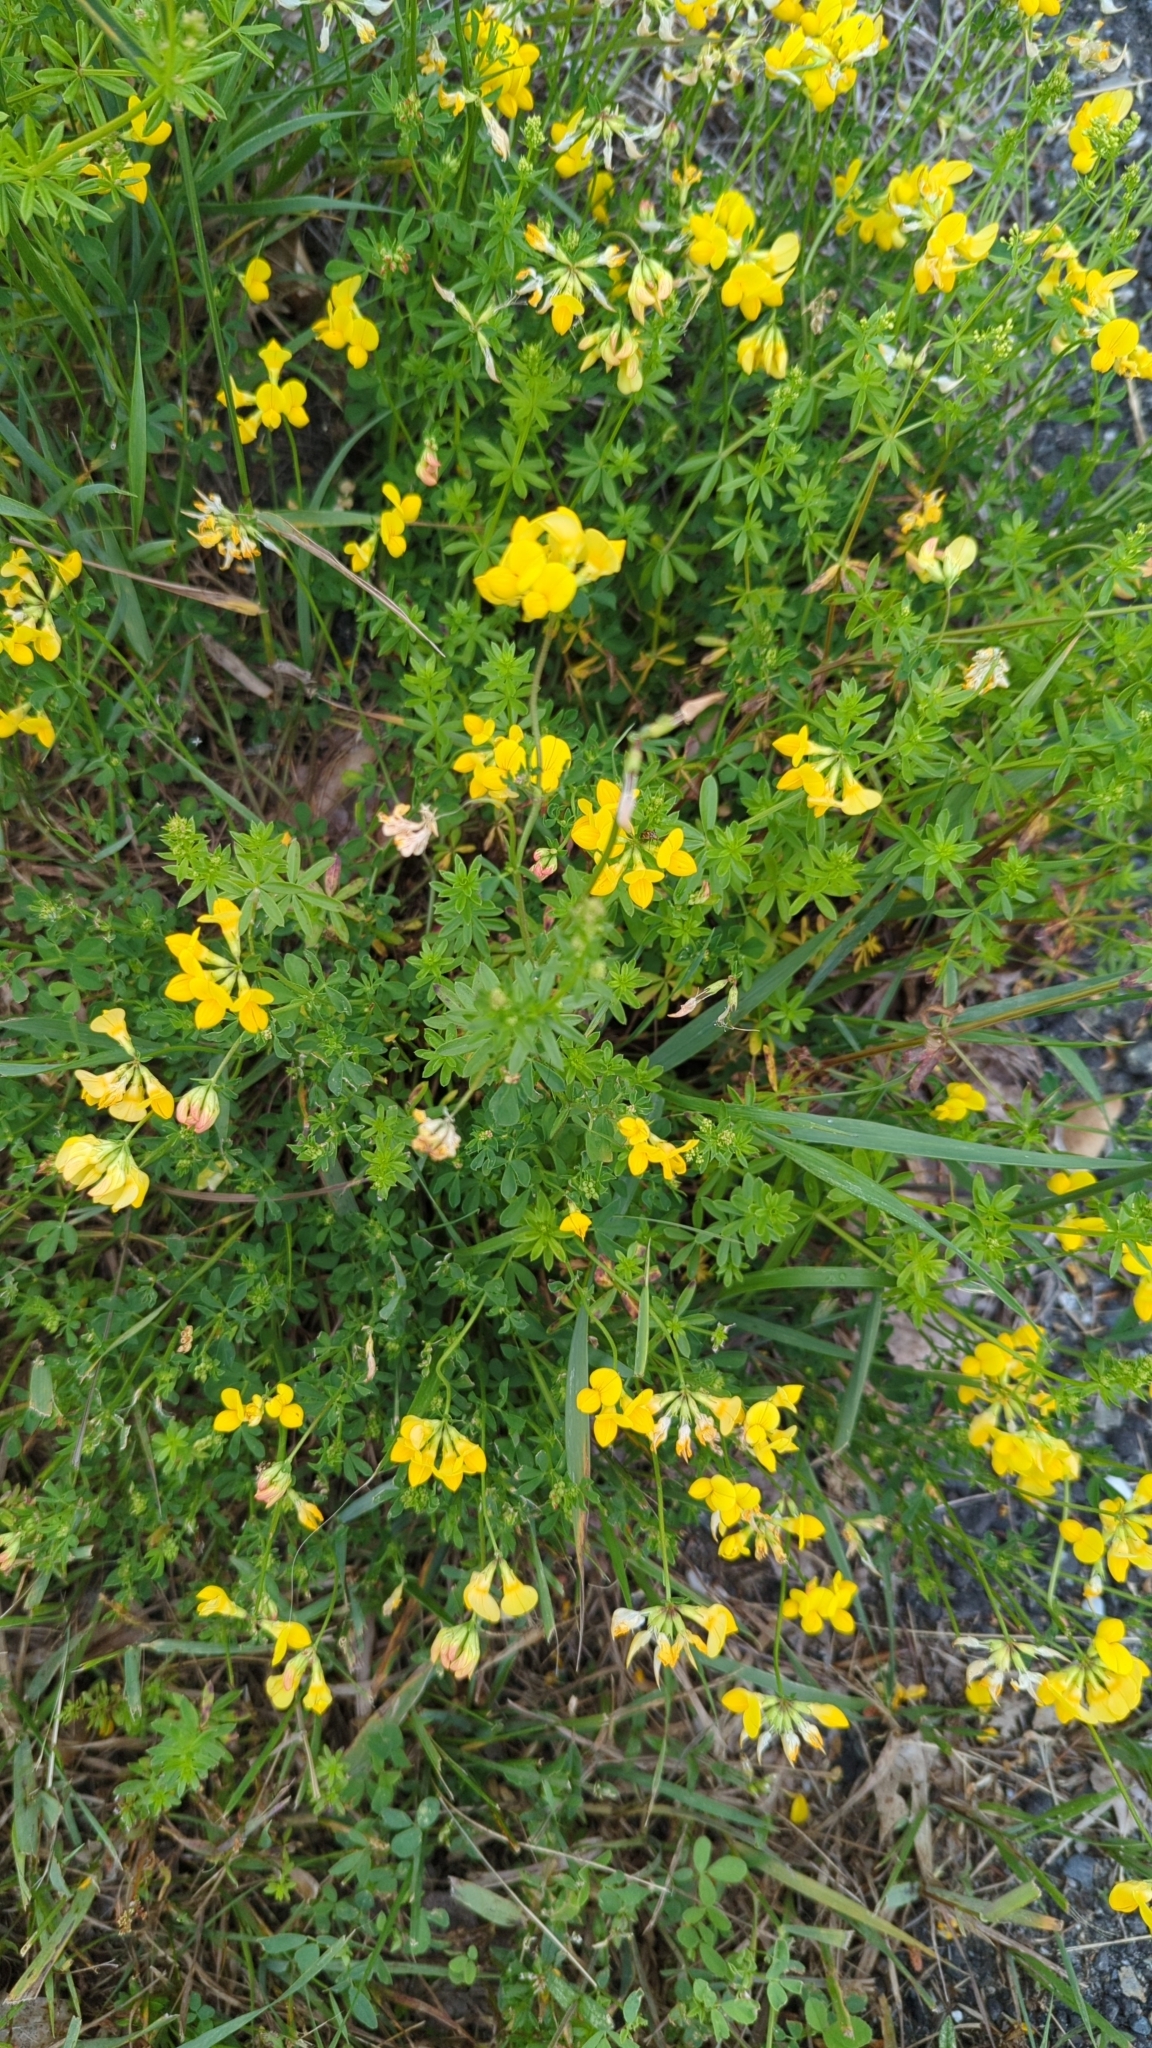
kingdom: Plantae
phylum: Tracheophyta
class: Magnoliopsida
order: Fabales
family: Fabaceae
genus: Lotus
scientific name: Lotus corniculatus
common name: Common bird's-foot-trefoil
